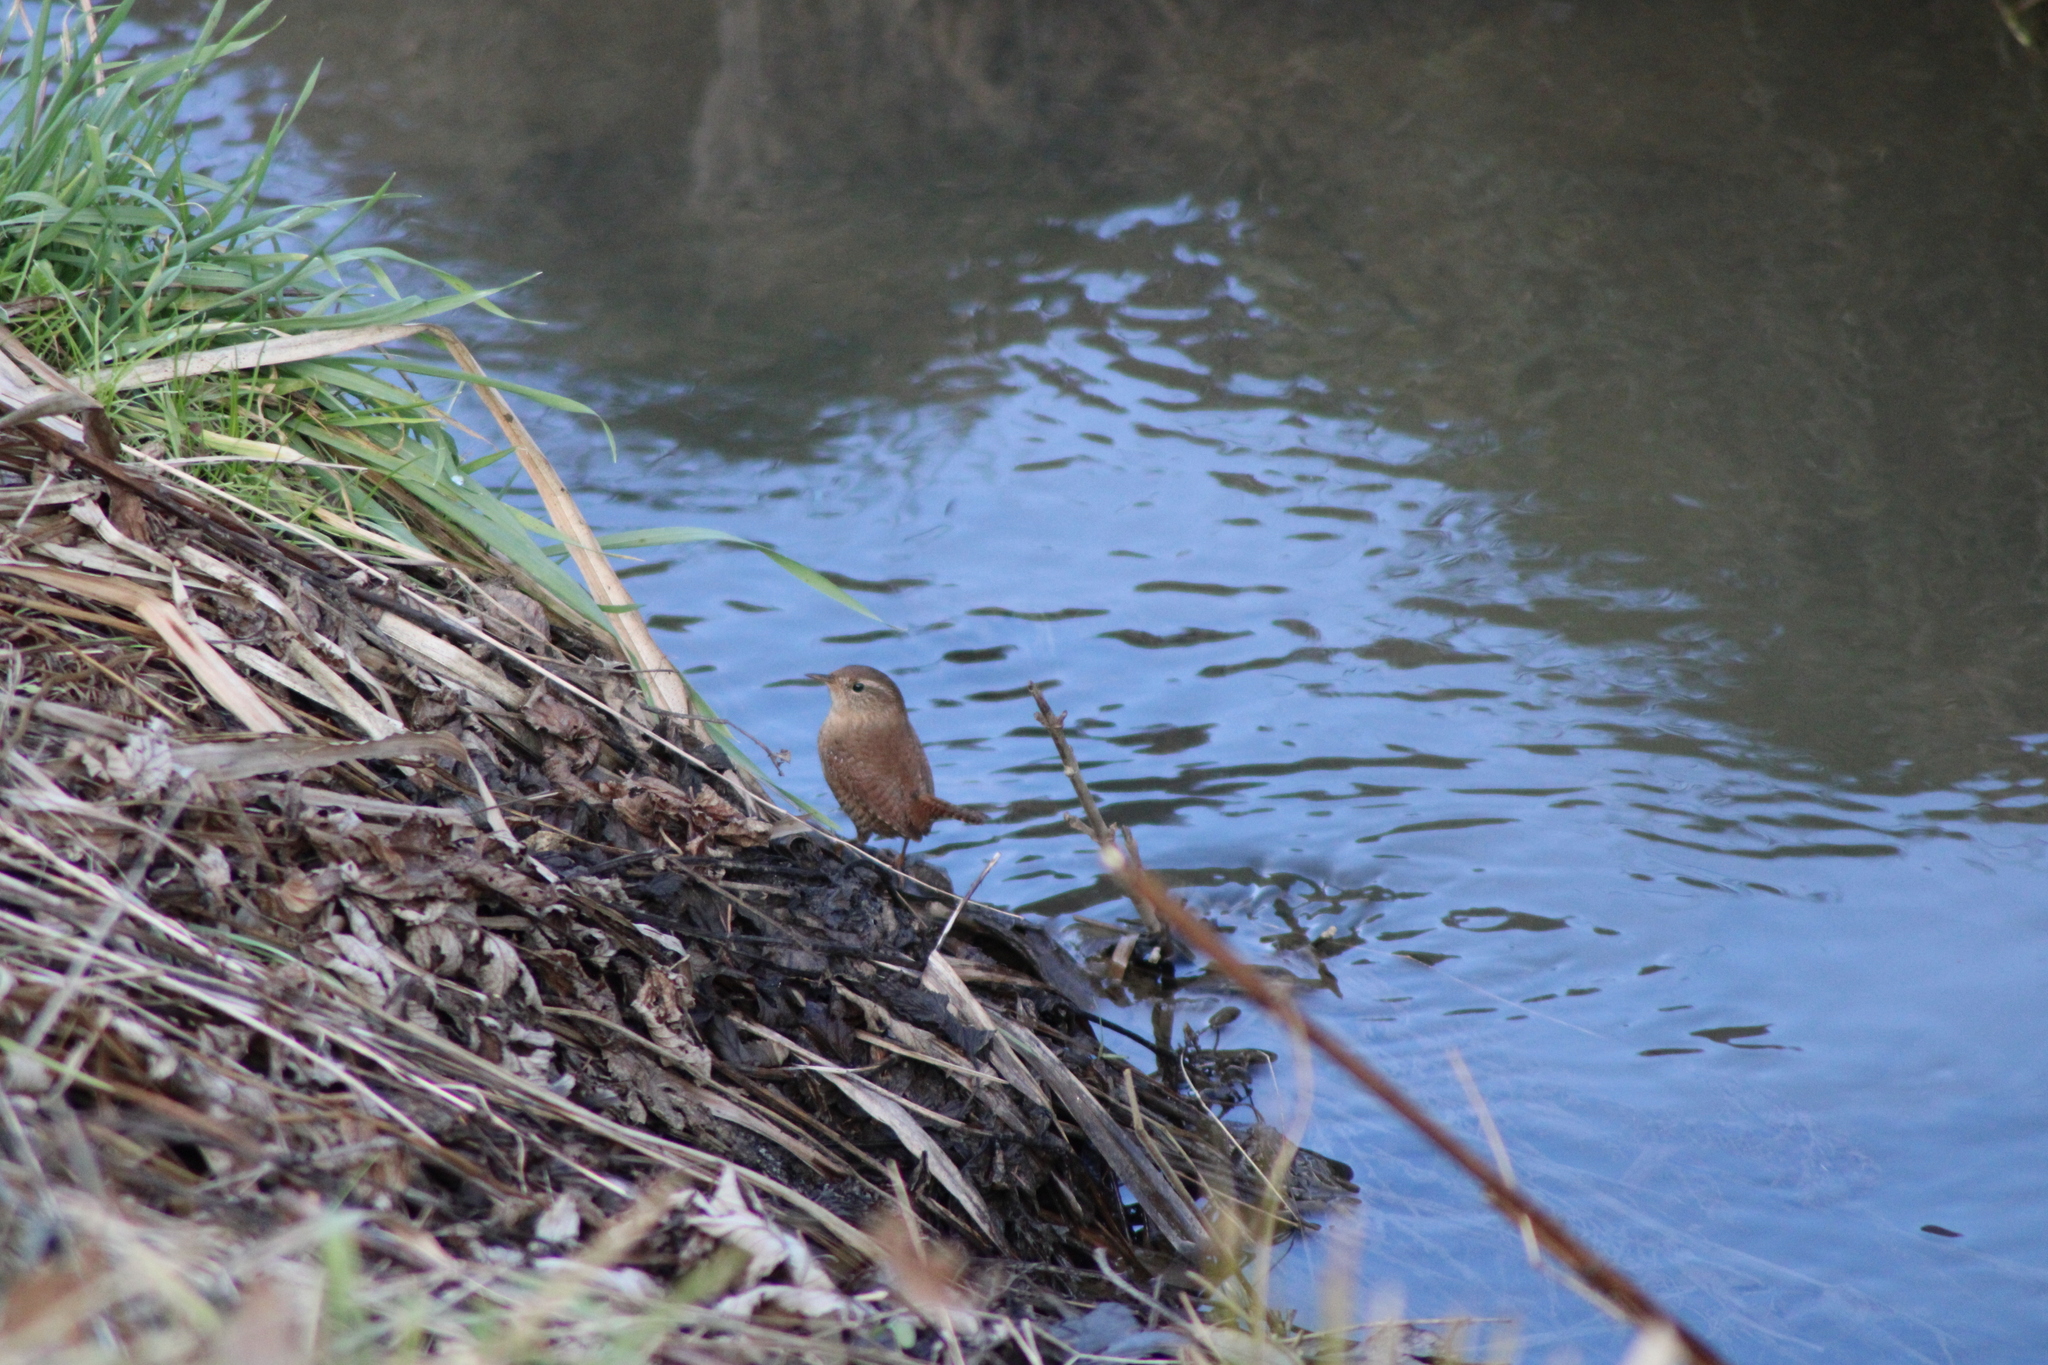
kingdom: Animalia
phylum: Chordata
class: Aves
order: Passeriformes
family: Troglodytidae
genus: Troglodytes
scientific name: Troglodytes troglodytes
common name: Eurasian wren
